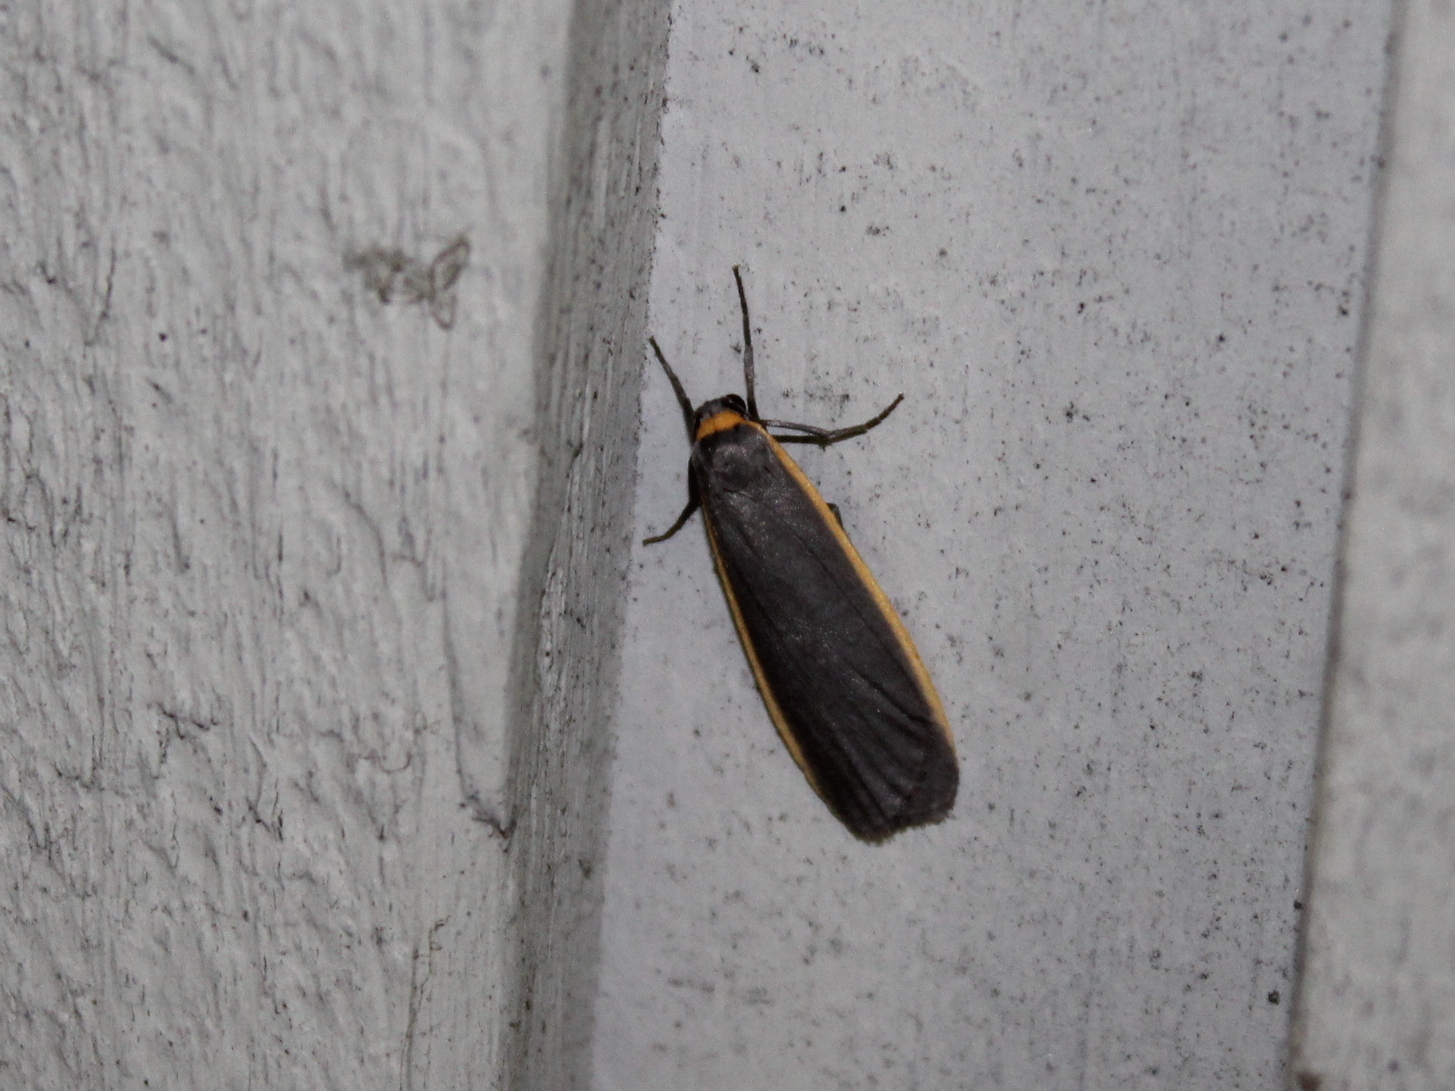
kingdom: Animalia
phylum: Arthropoda
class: Insecta
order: Lepidoptera
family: Erebidae
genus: Manulea
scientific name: Manulea bicolor
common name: Bicolored moth
